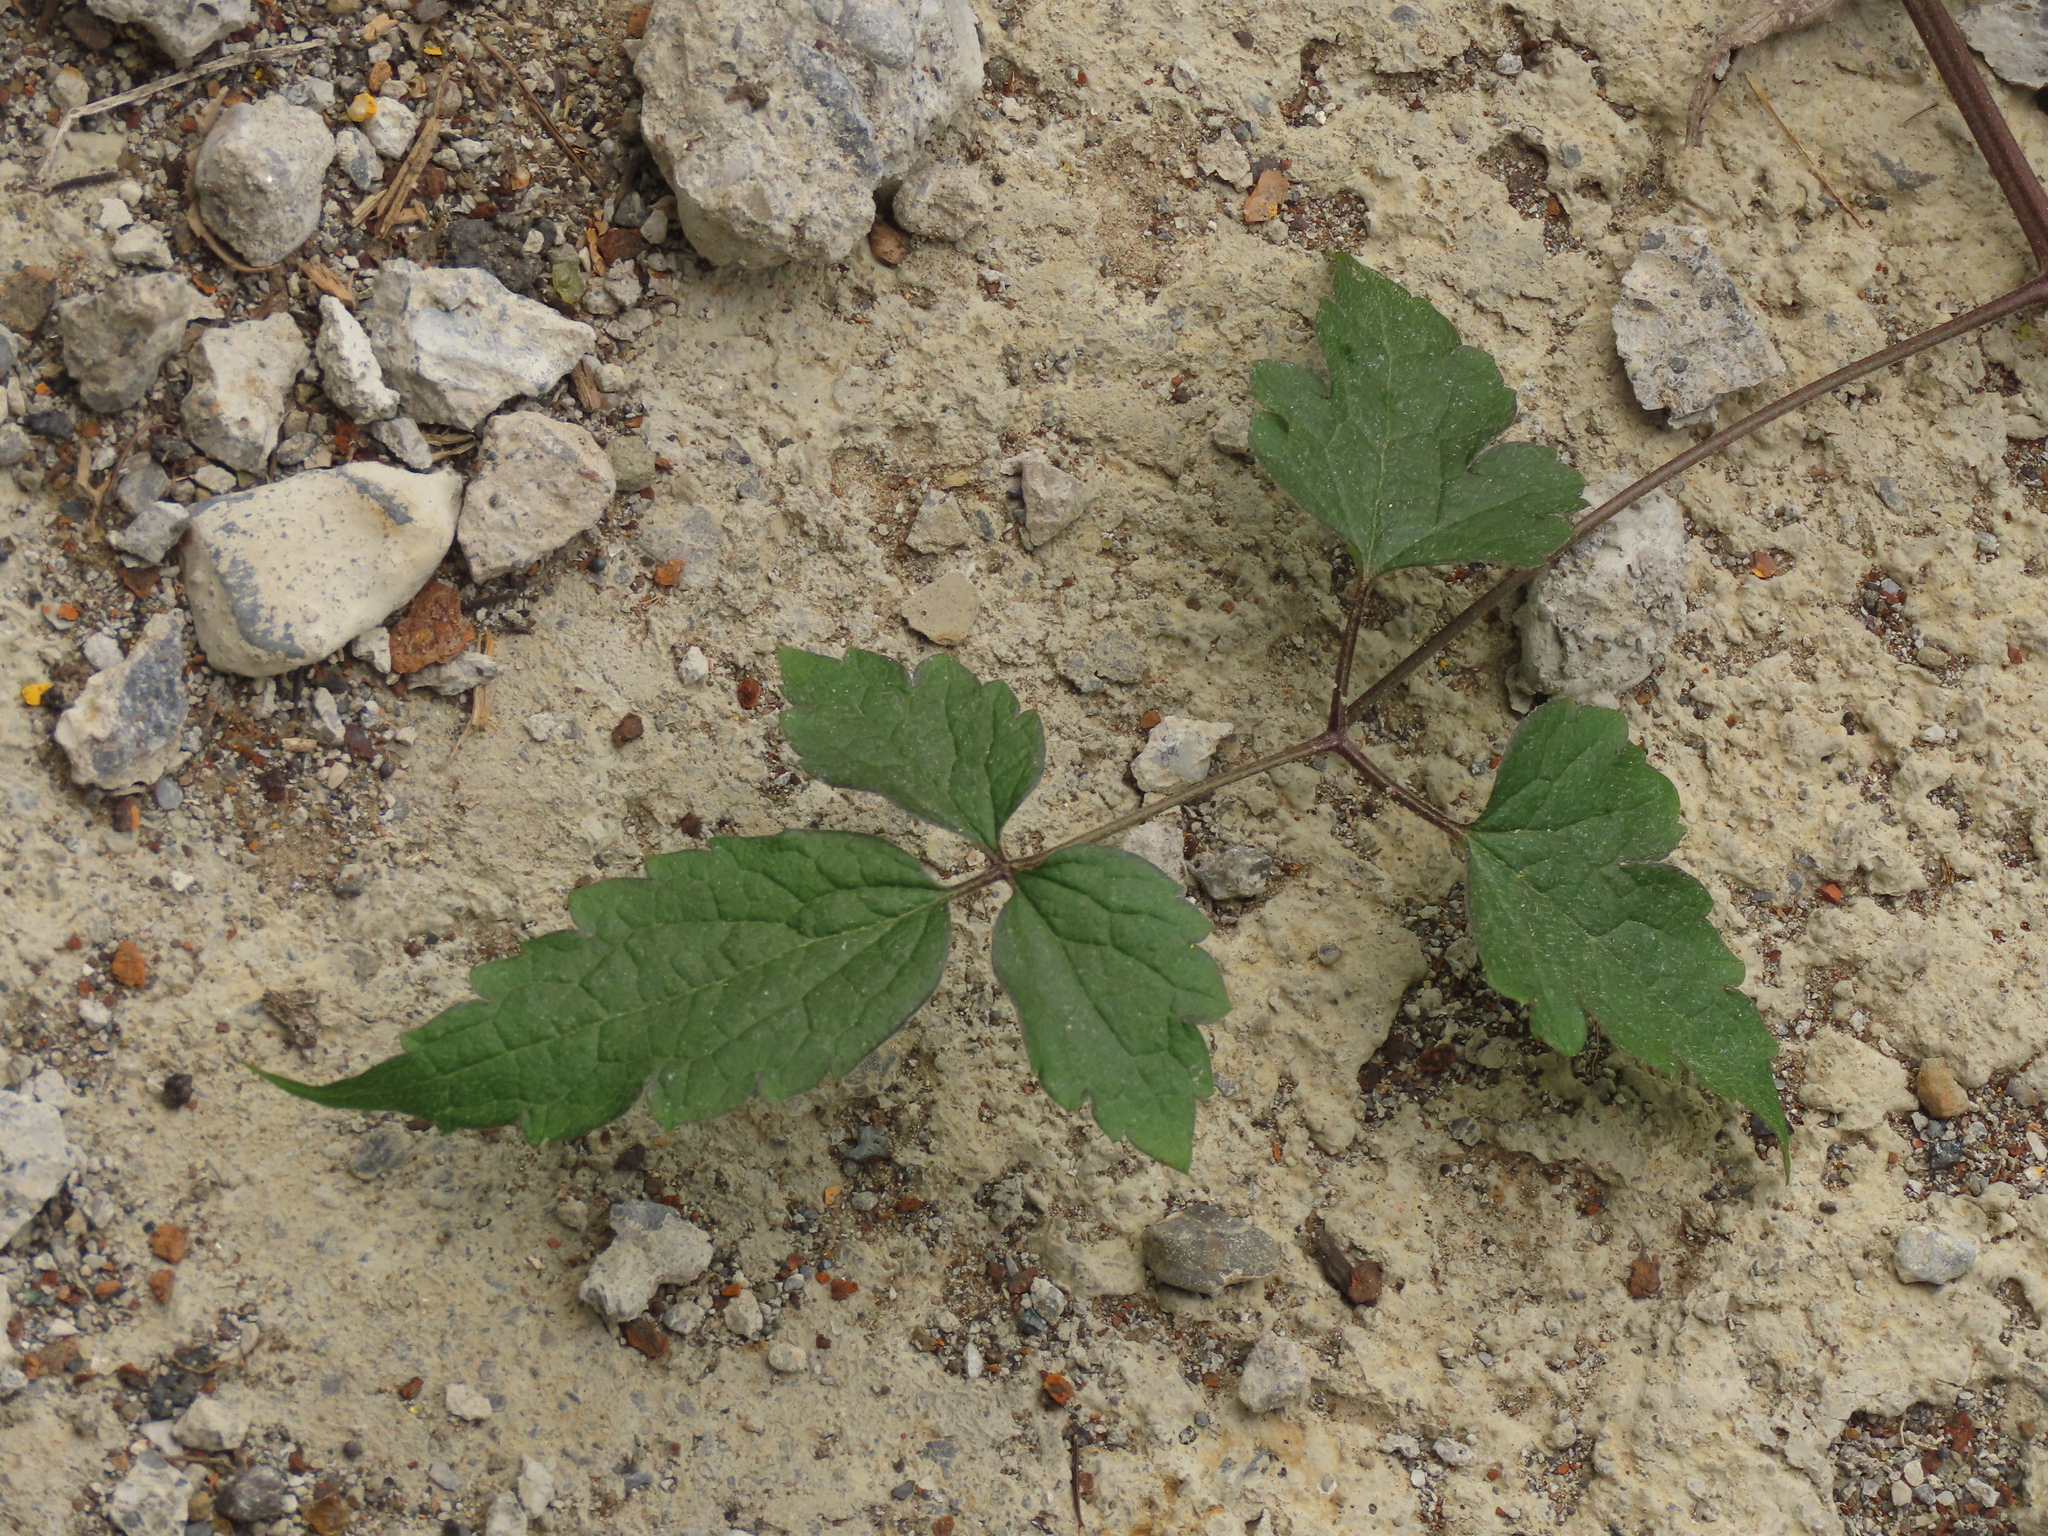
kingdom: Plantae
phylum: Tracheophyta
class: Magnoliopsida
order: Ranunculales
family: Ranunculaceae
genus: Clematis
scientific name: Clematis grata
